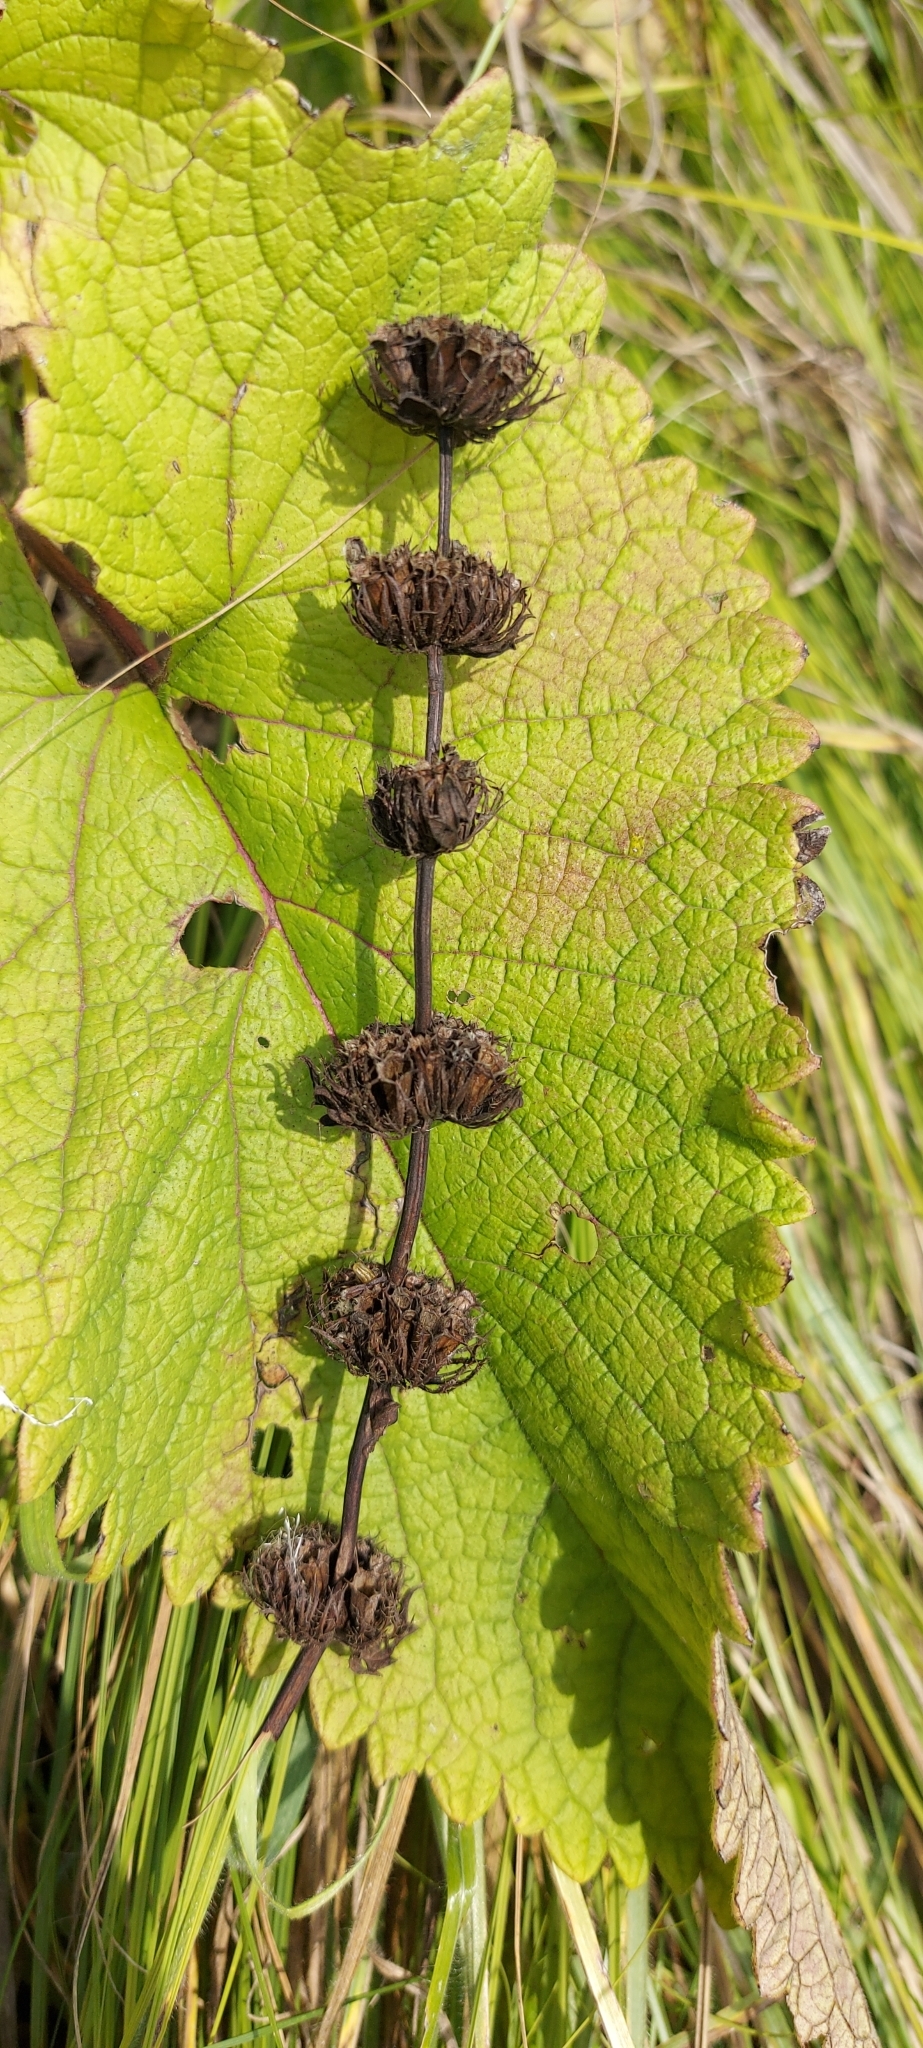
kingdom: Plantae
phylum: Tracheophyta
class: Magnoliopsida
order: Lamiales
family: Lamiaceae
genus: Phlomoides
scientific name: Phlomoides tuberosa
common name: Tuberous jerusalem sage
